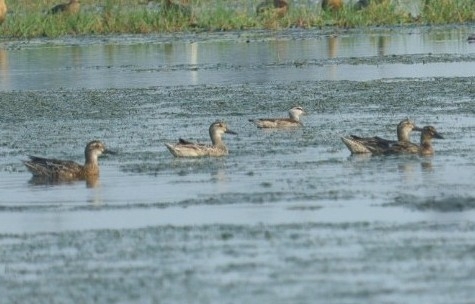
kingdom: Animalia
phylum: Chordata
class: Aves
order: Anseriformes
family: Anatidae
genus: Spatula
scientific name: Spatula querquedula
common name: Garganey
